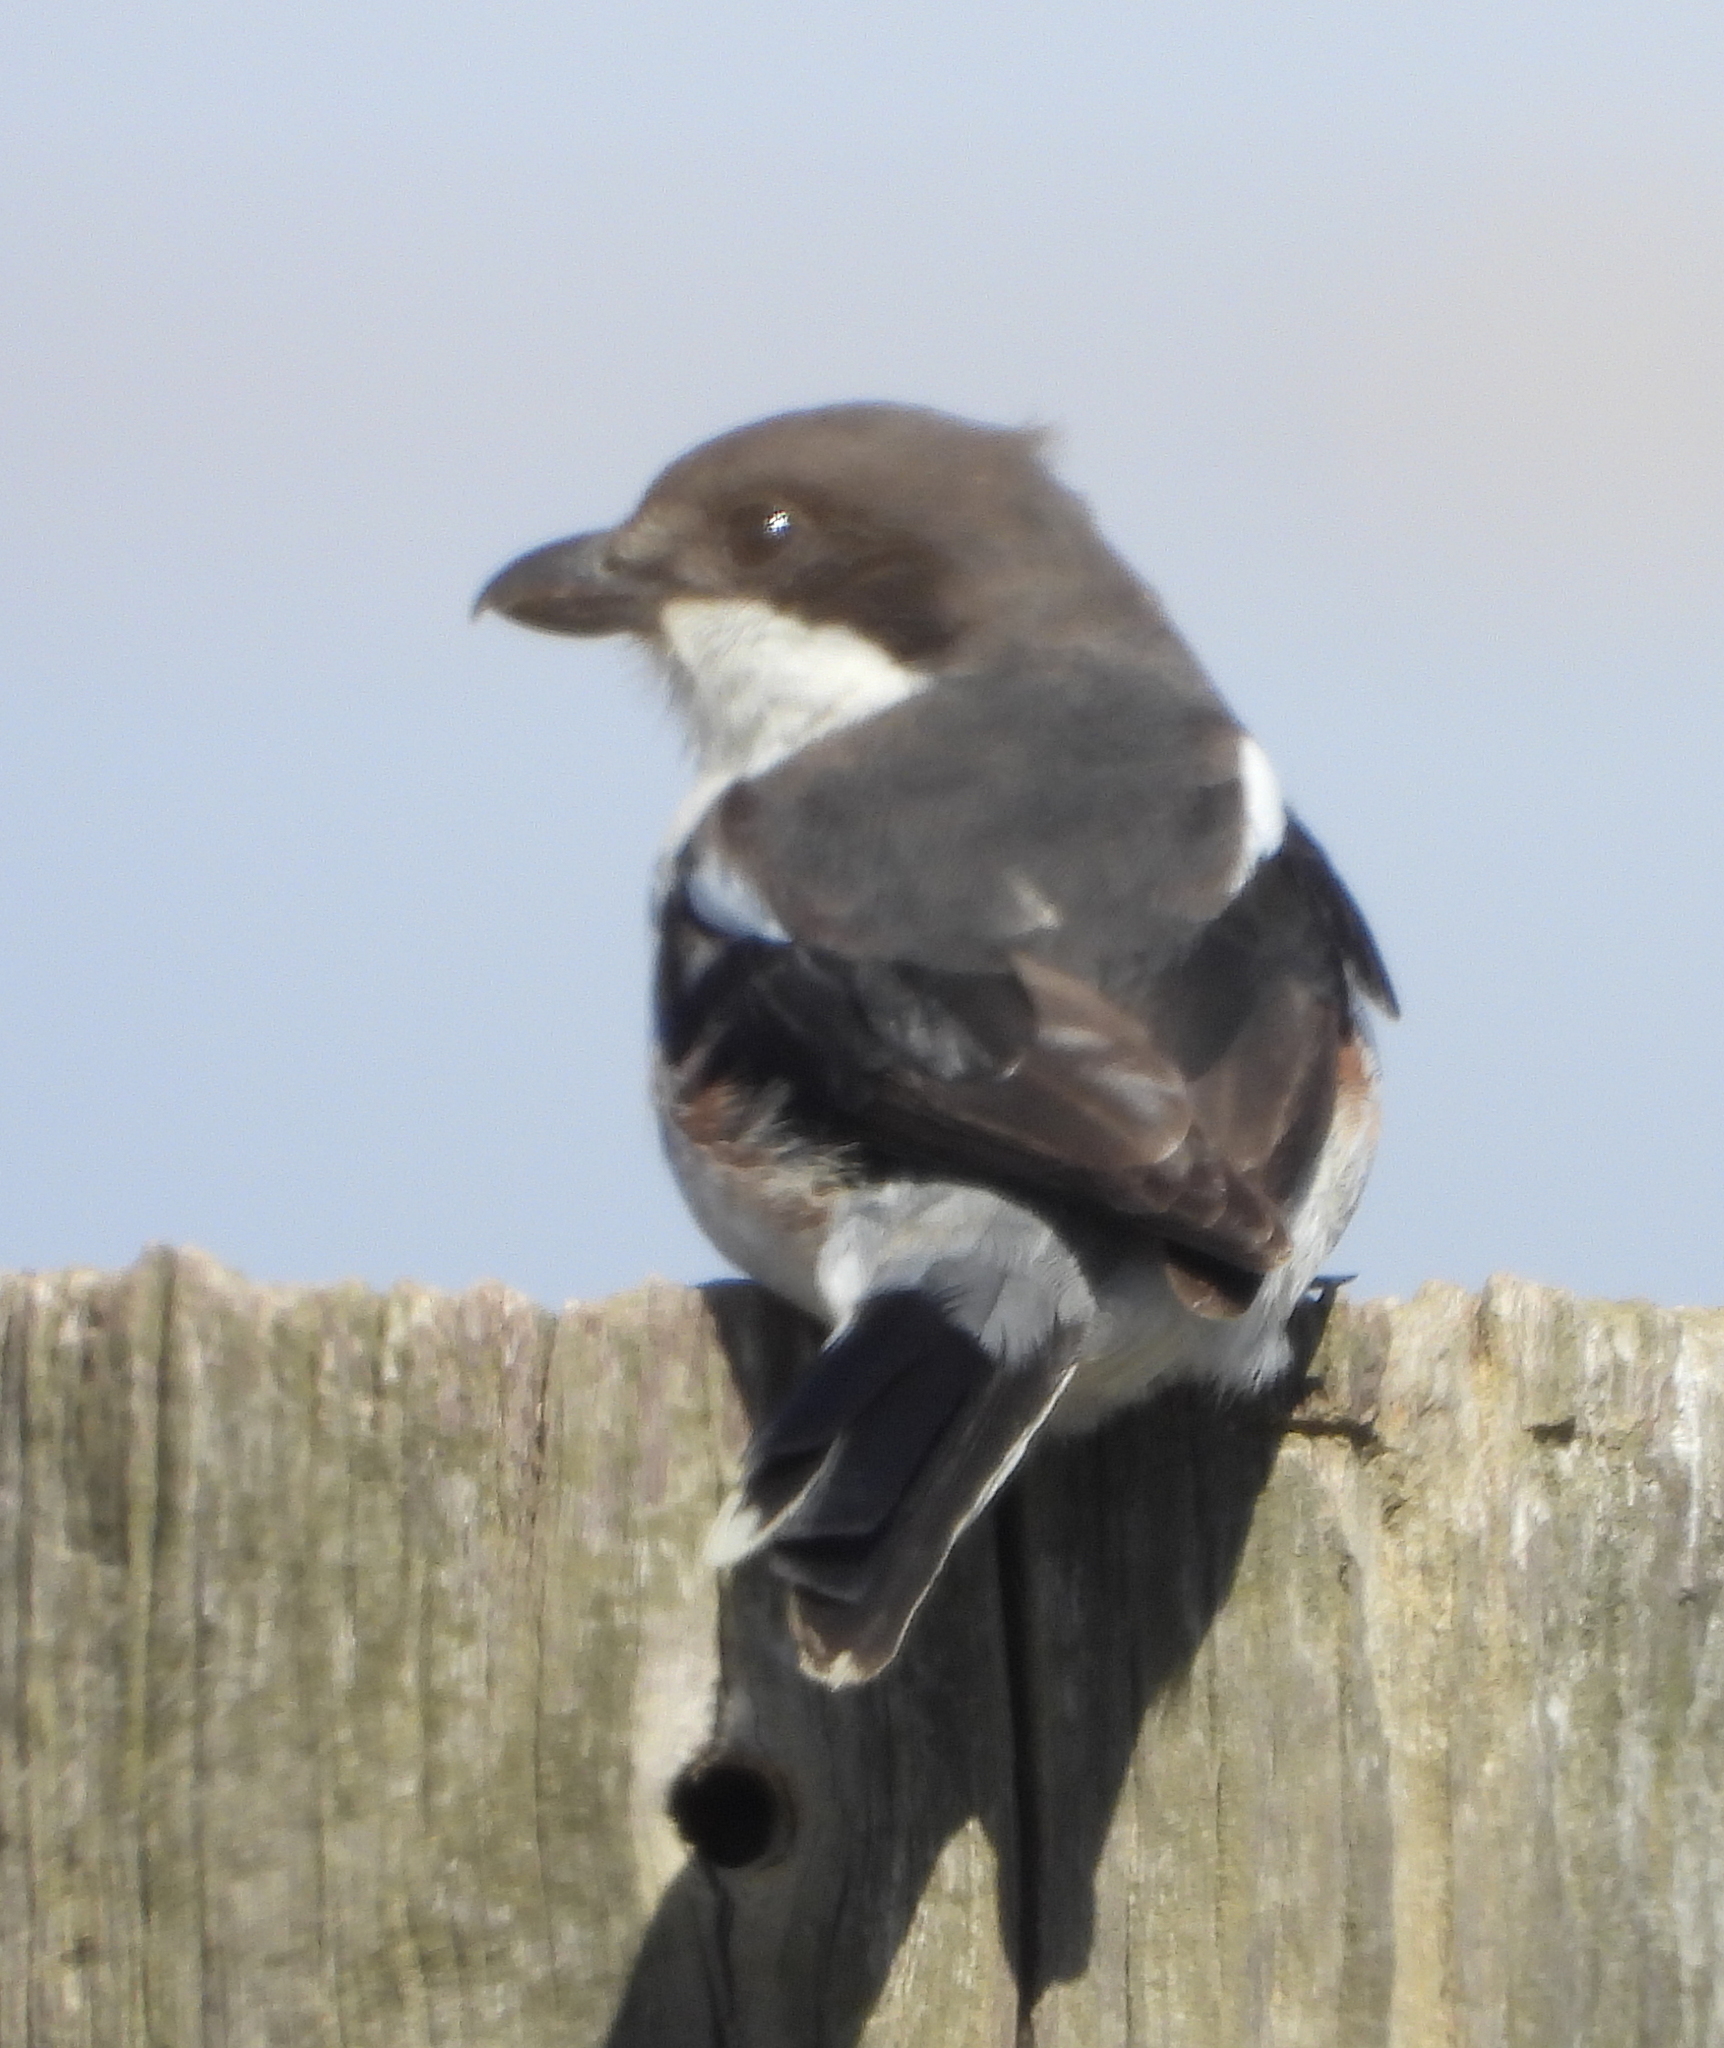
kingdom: Animalia
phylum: Chordata
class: Aves
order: Passeriformes
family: Laniidae
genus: Lanius
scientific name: Lanius collaris
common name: Southern fiscal
